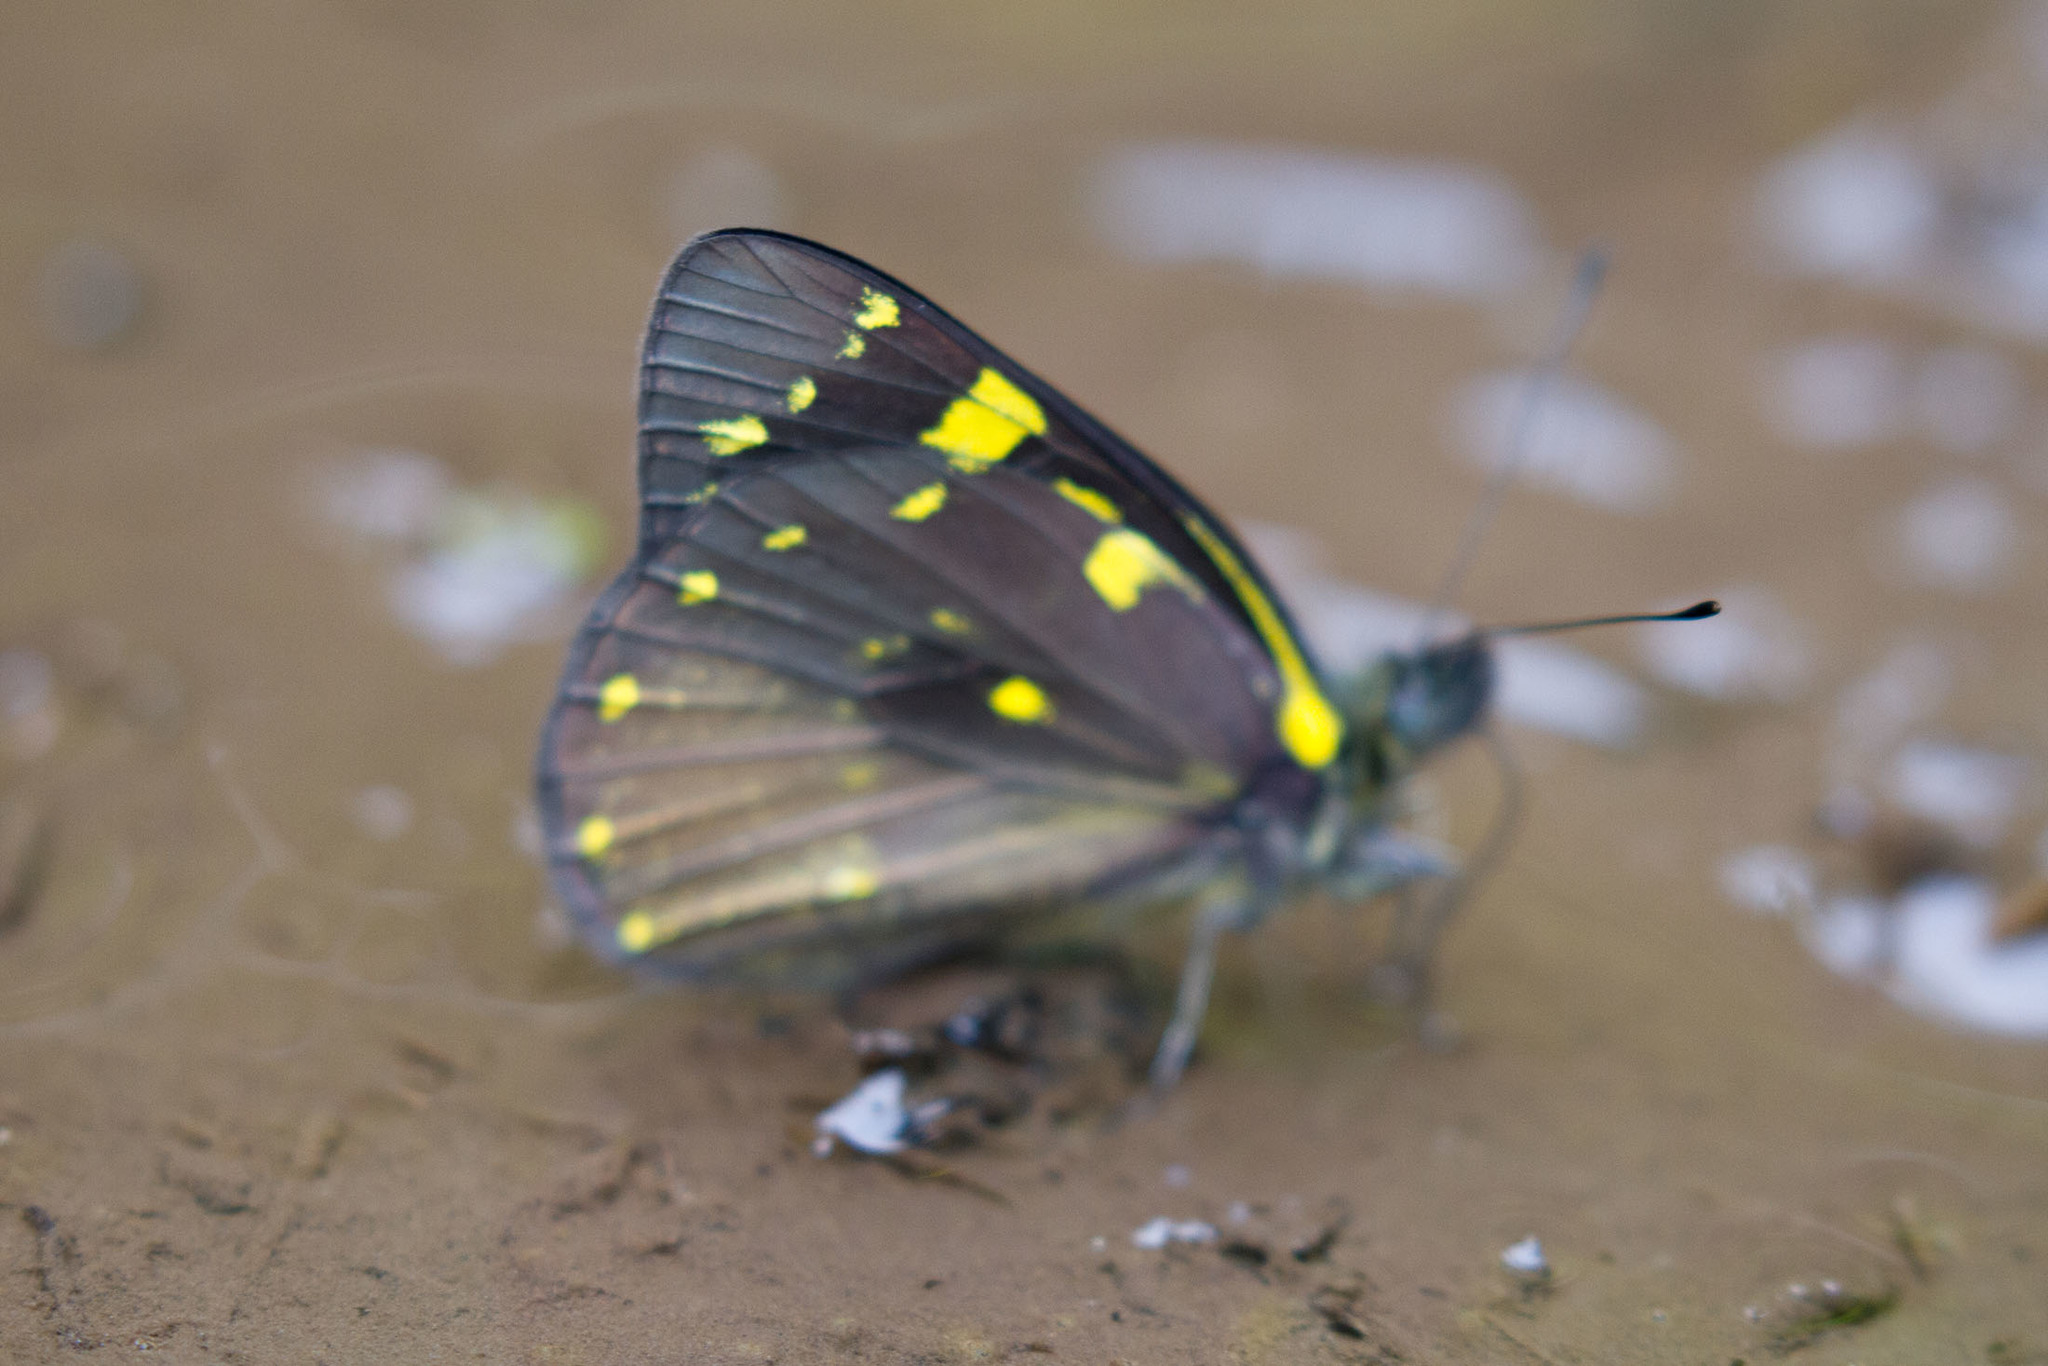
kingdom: Animalia
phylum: Arthropoda
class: Insecta
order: Lepidoptera
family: Pieridae
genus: Delias
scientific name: Delias microsticha
